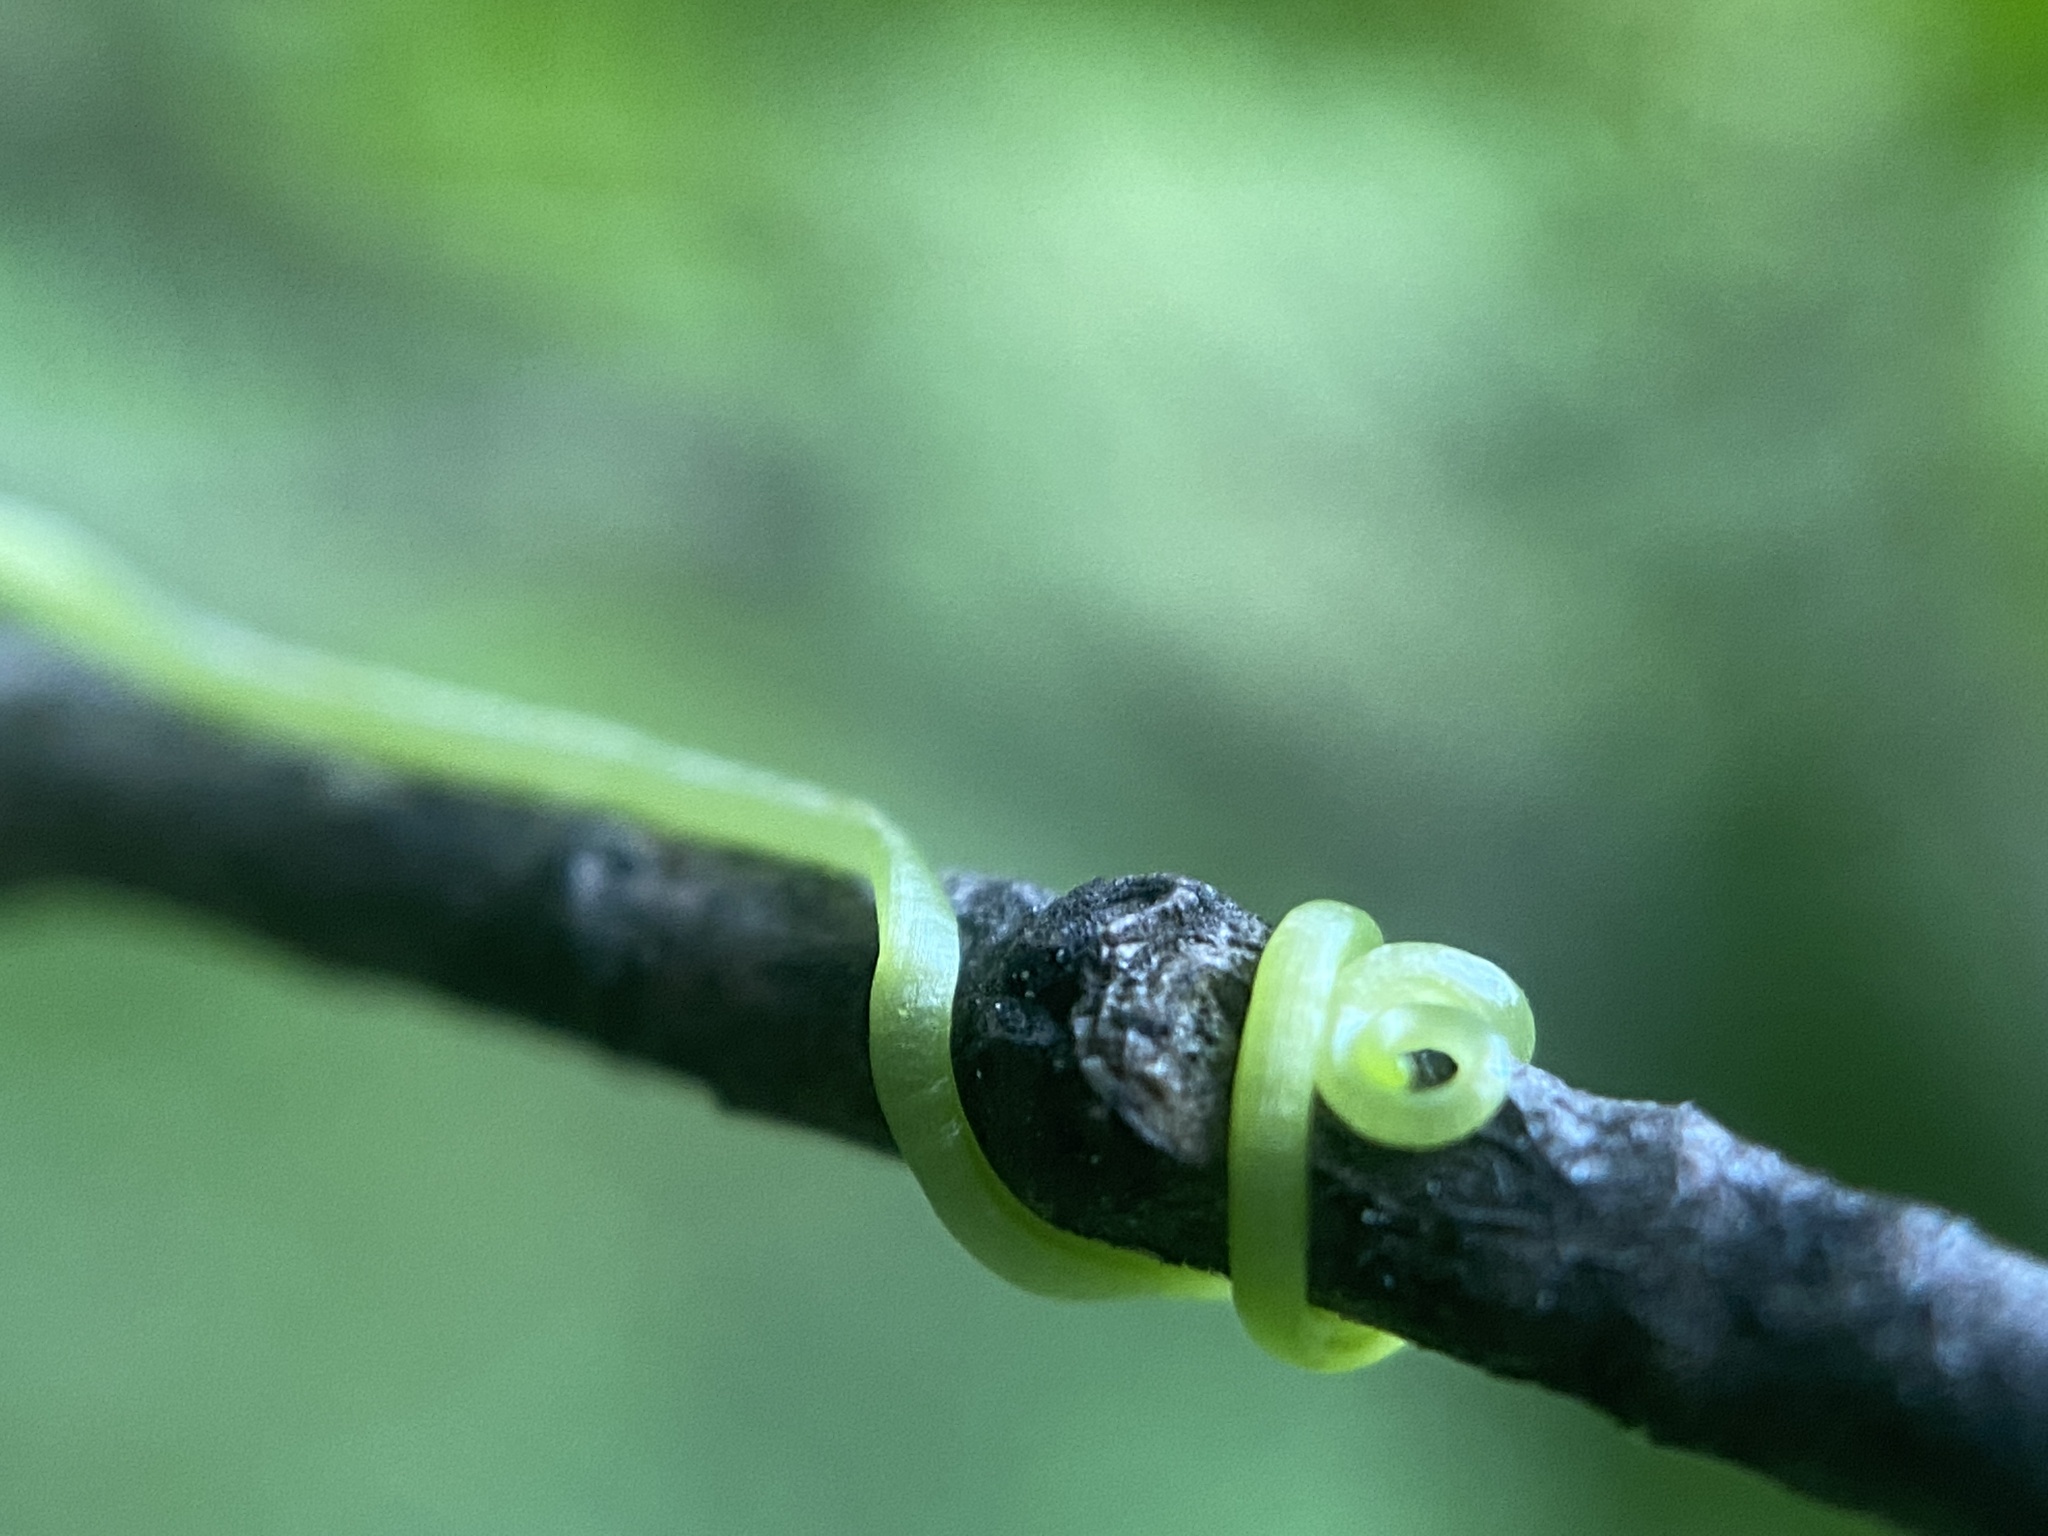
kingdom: Plantae
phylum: Tracheophyta
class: Magnoliopsida
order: Cucurbitales
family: Cucurbitaceae
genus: Sicyos
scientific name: Sicyos angulatus
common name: Angled burr cucumber
